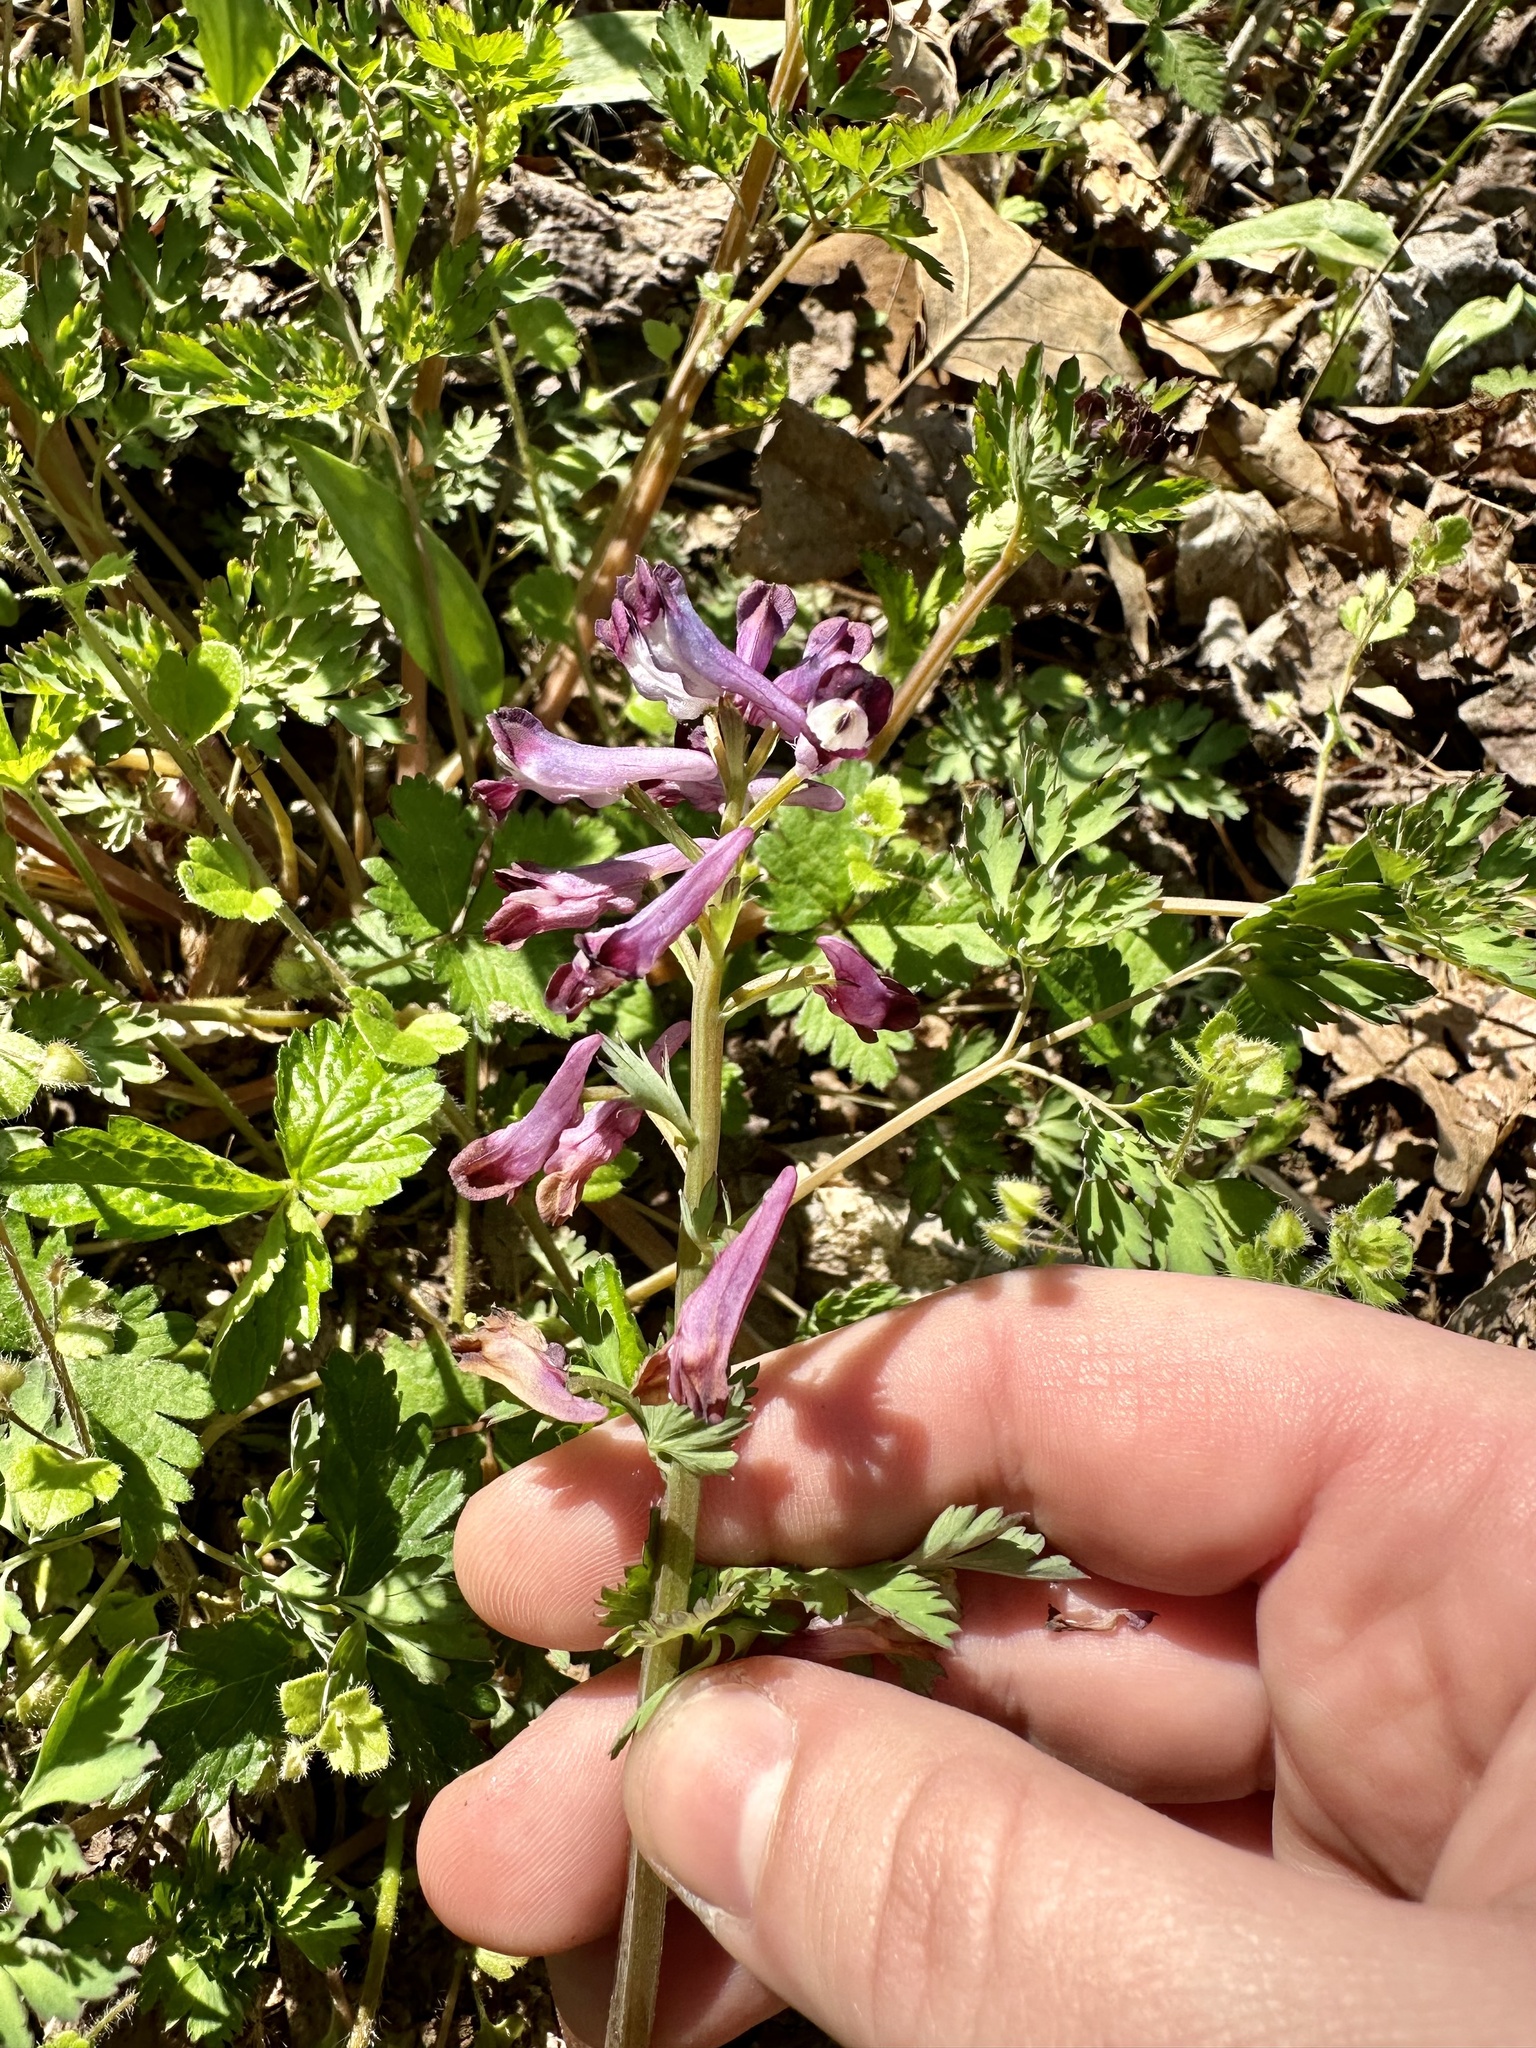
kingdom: Plantae
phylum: Tracheophyta
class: Magnoliopsida
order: Ranunculales
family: Papaveraceae
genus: Corydalis
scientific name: Corydalis incisa
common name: Incised fumewort
